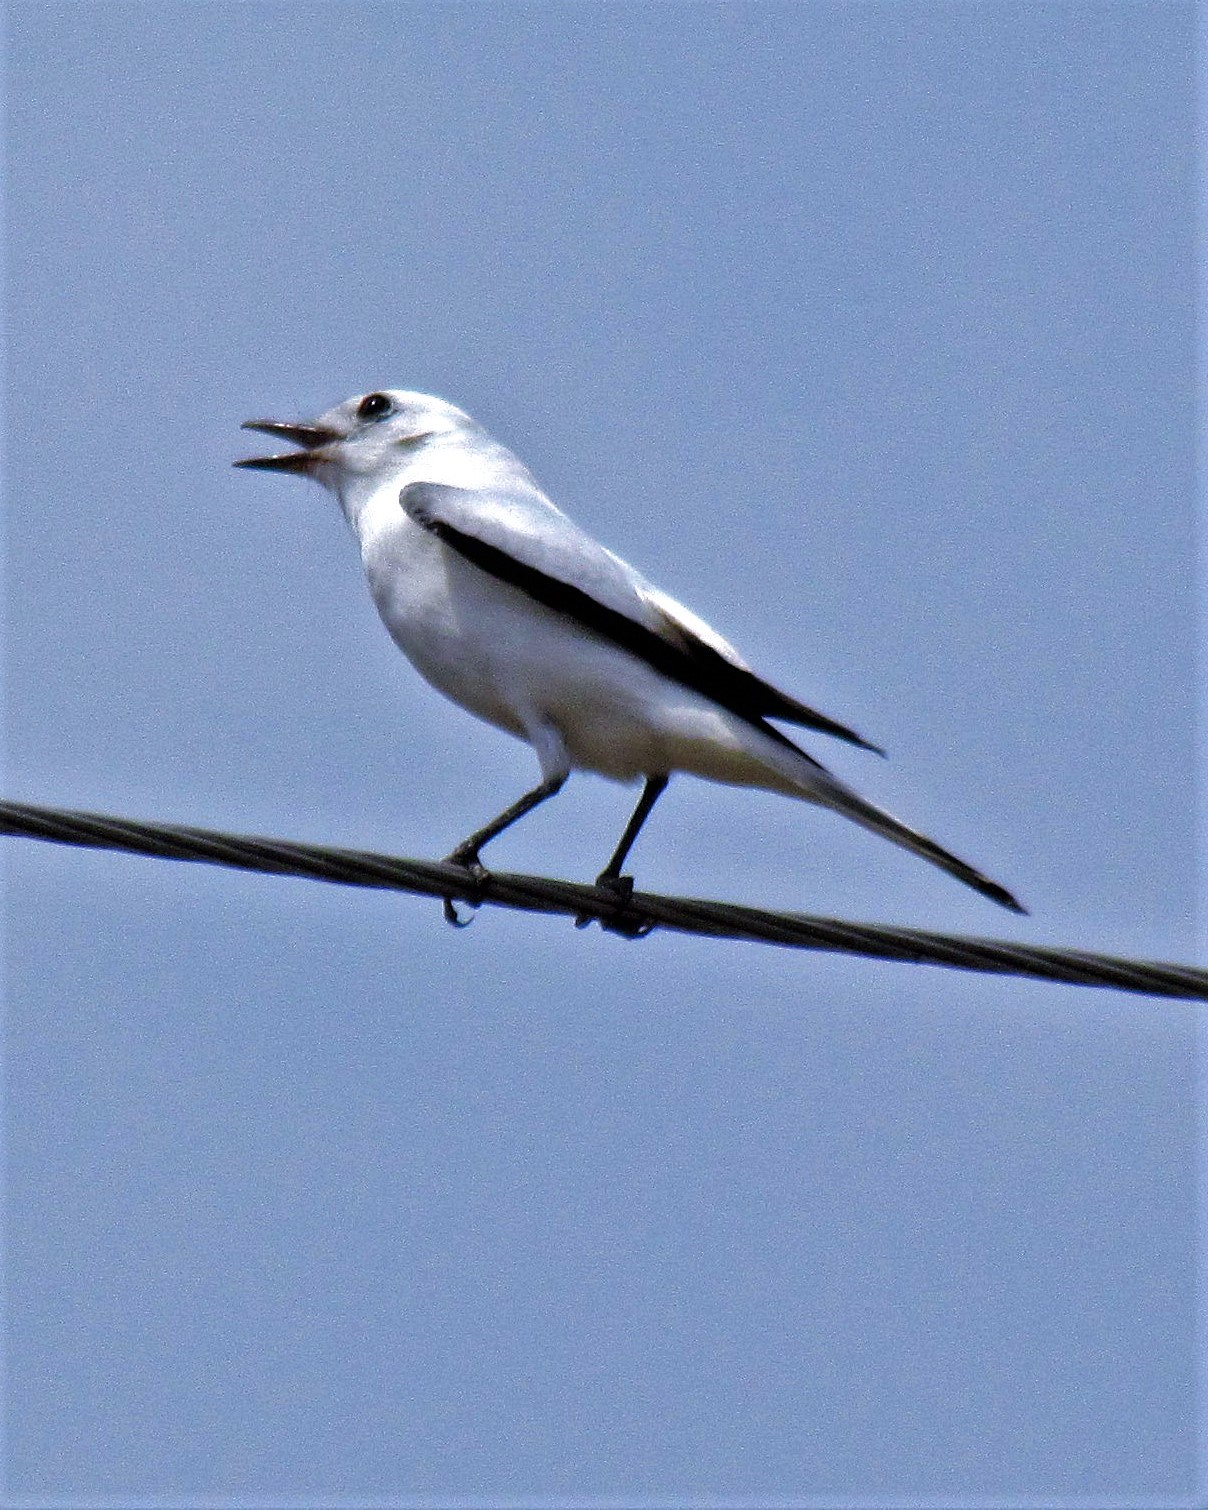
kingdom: Animalia
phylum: Chordata
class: Aves
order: Passeriformes
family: Tyrannidae
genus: Xolmis
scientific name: Xolmis irupero
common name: White monjita
